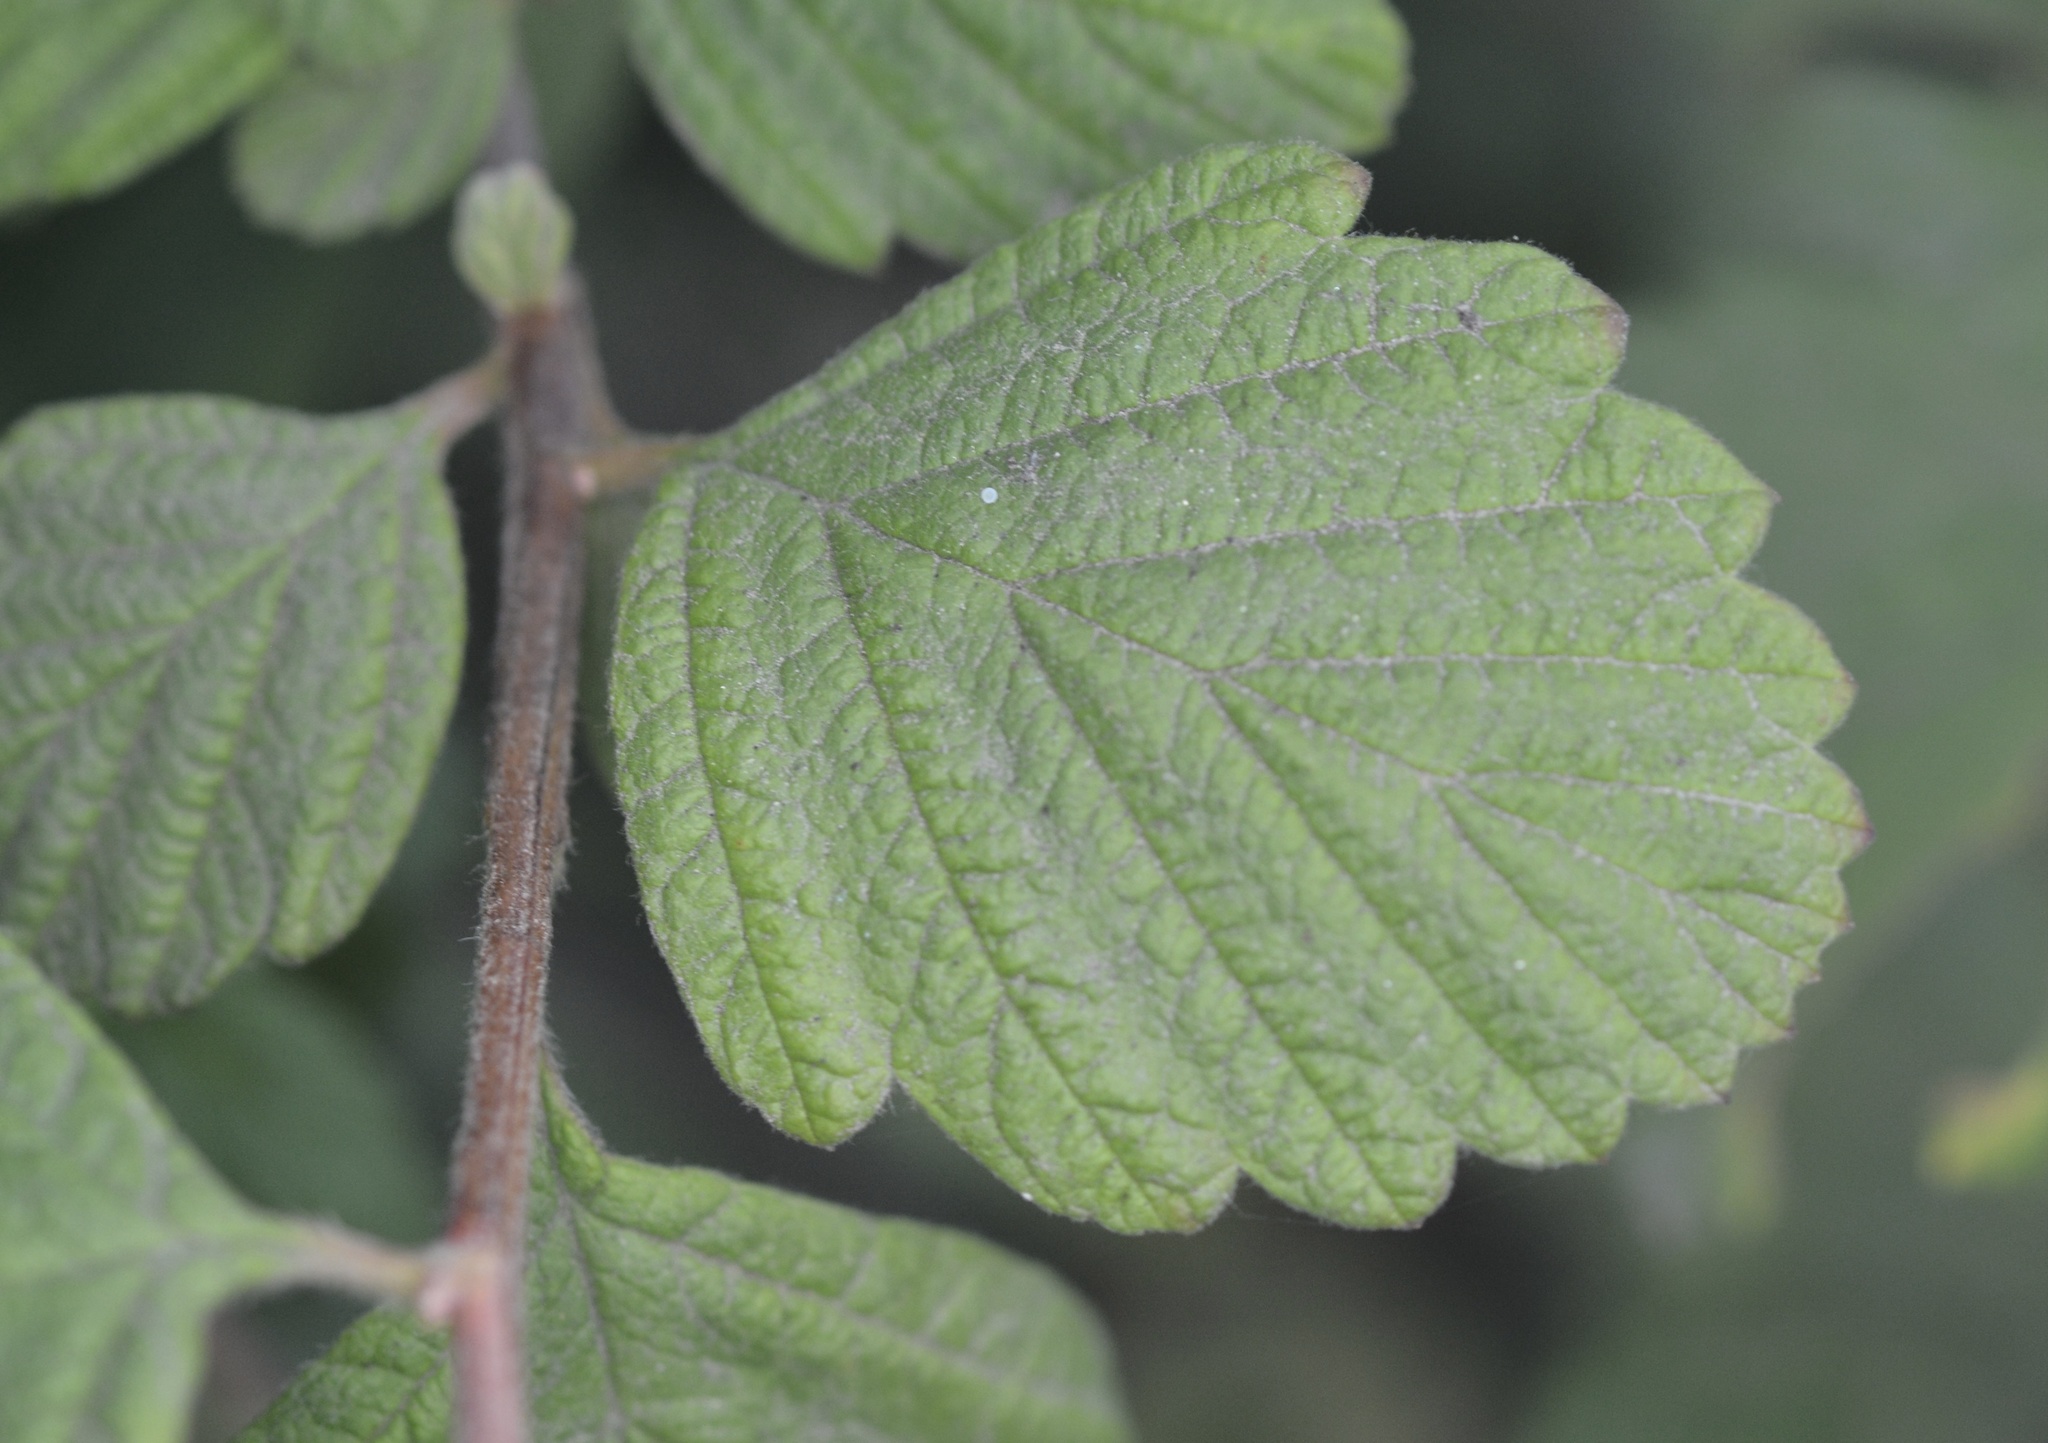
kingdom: Plantae
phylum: Tracheophyta
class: Magnoliopsida
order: Rosales
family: Rosaceae
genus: Holodiscus
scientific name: Holodiscus discolor
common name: Oceanspray
